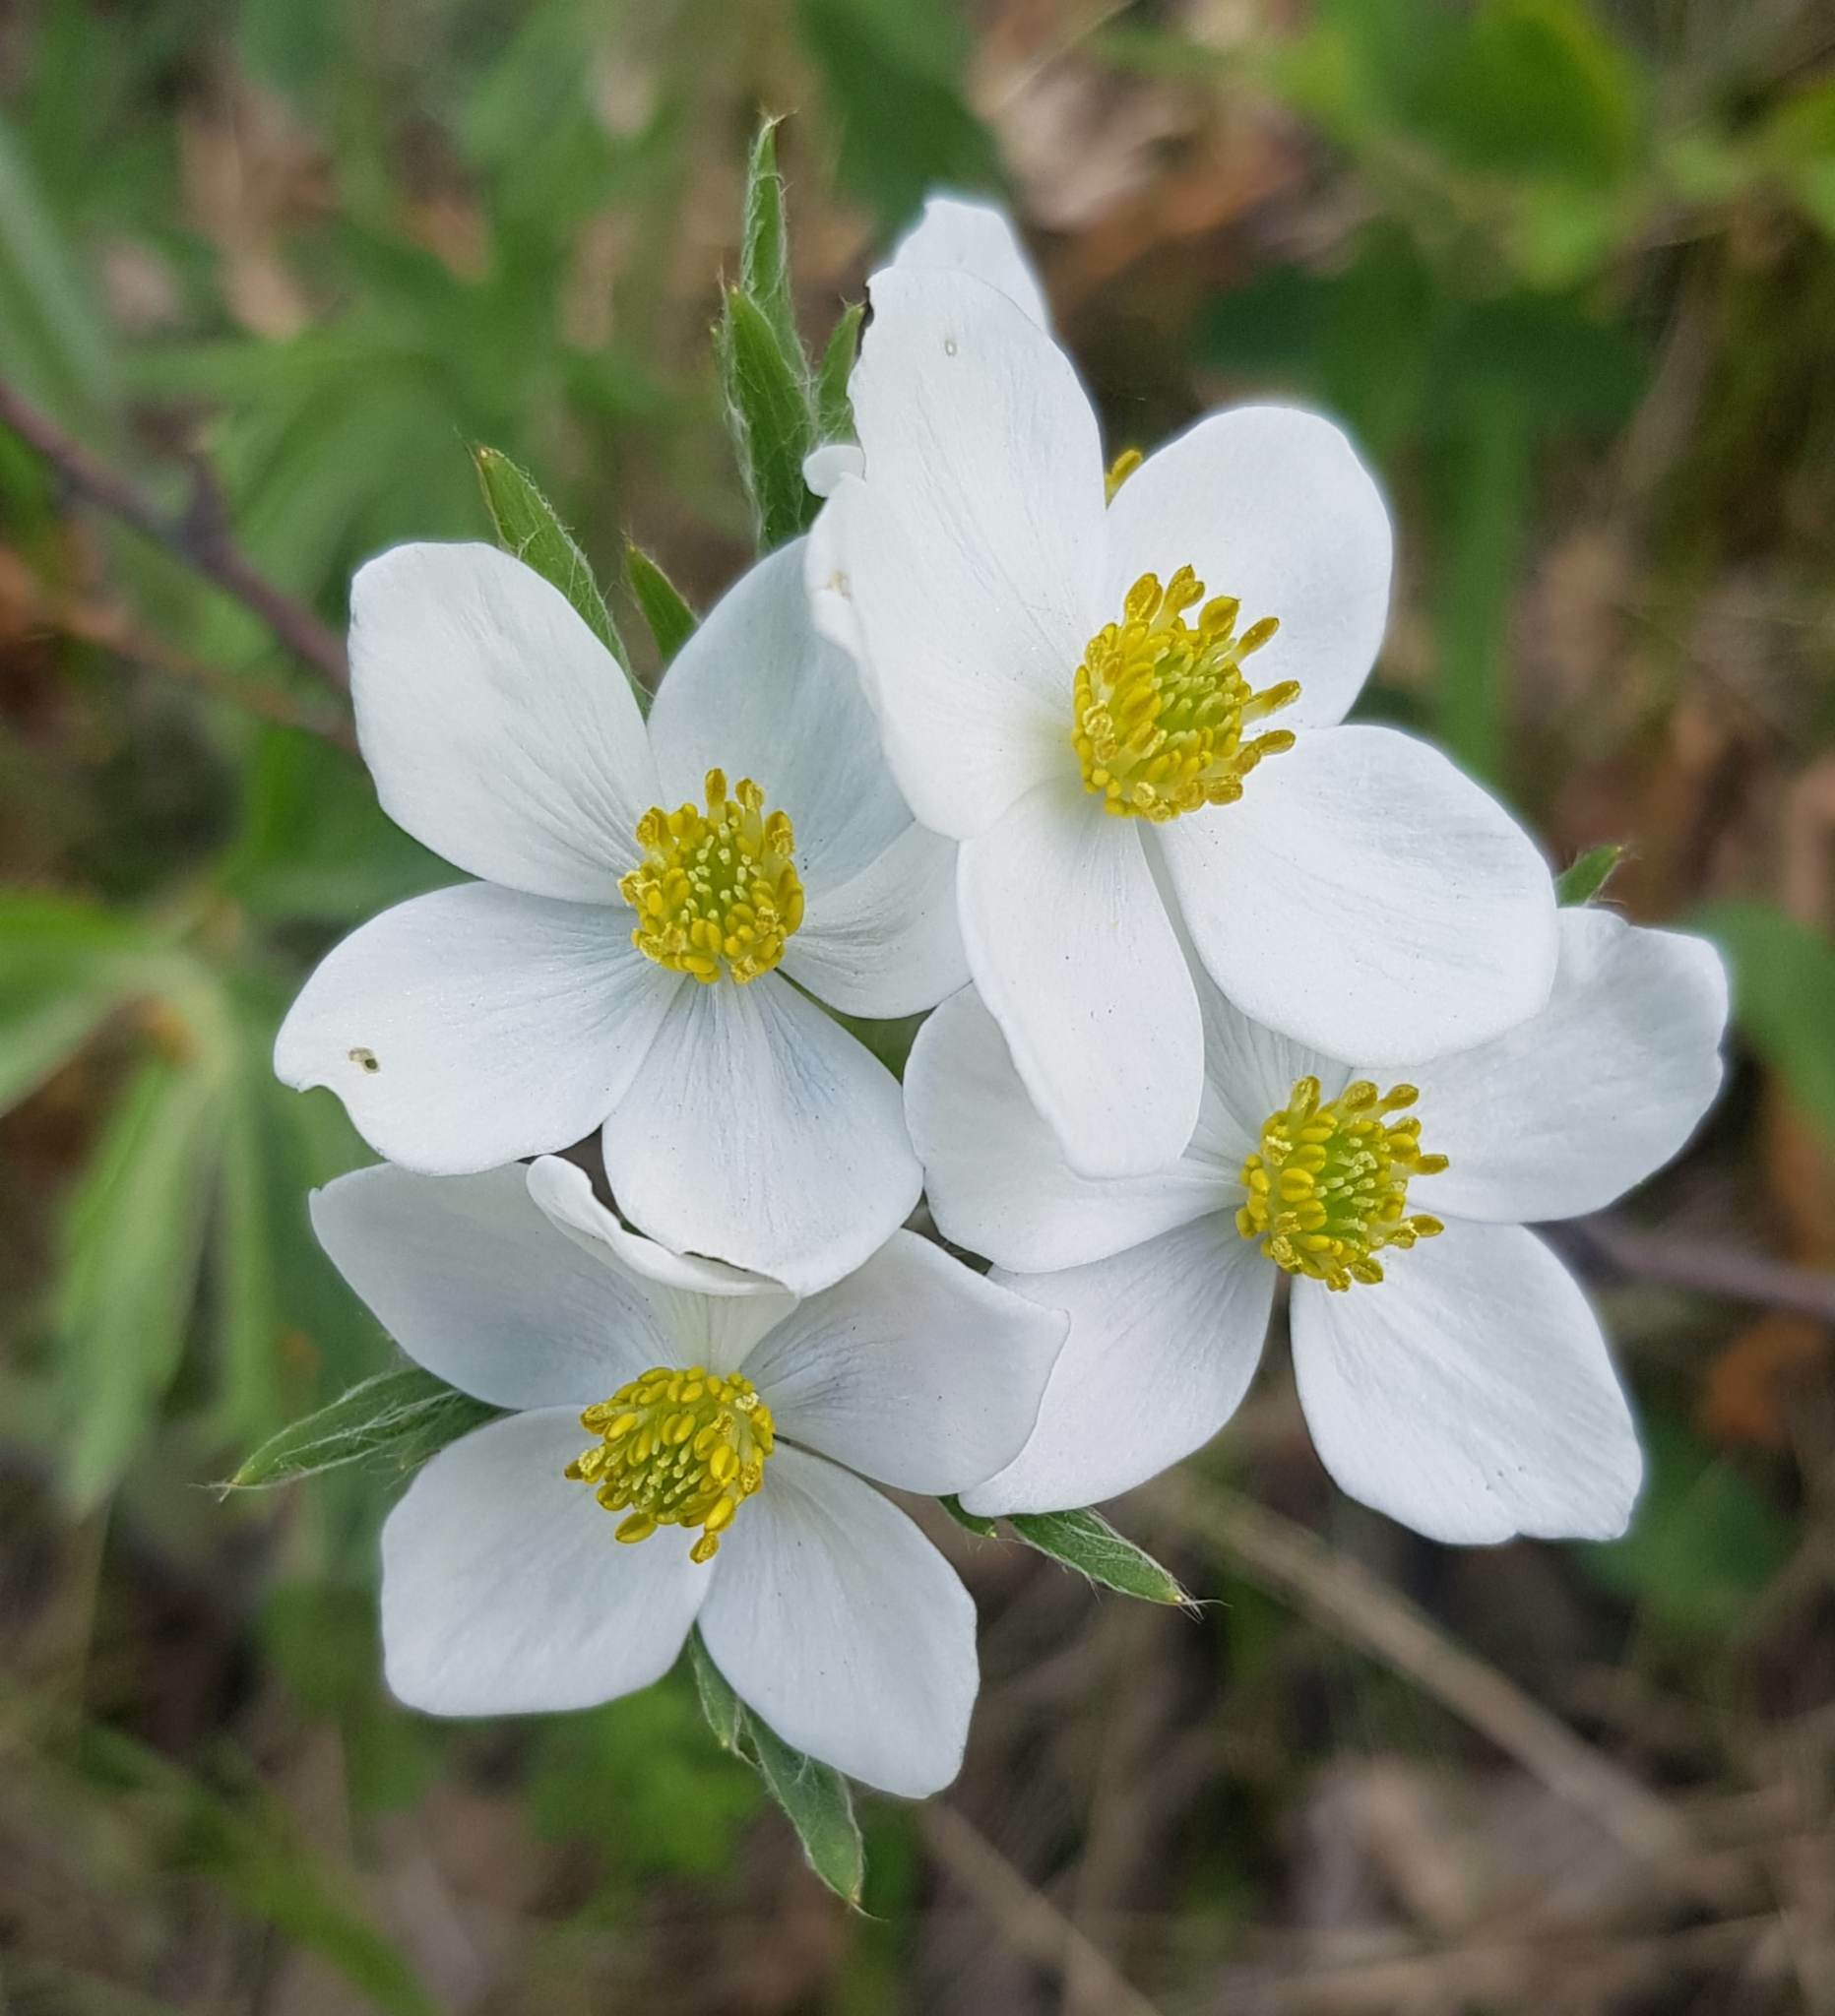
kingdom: Plantae
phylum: Tracheophyta
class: Magnoliopsida
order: Ranunculales
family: Ranunculaceae
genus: Anemonastrum
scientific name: Anemonastrum narcissiflorum
